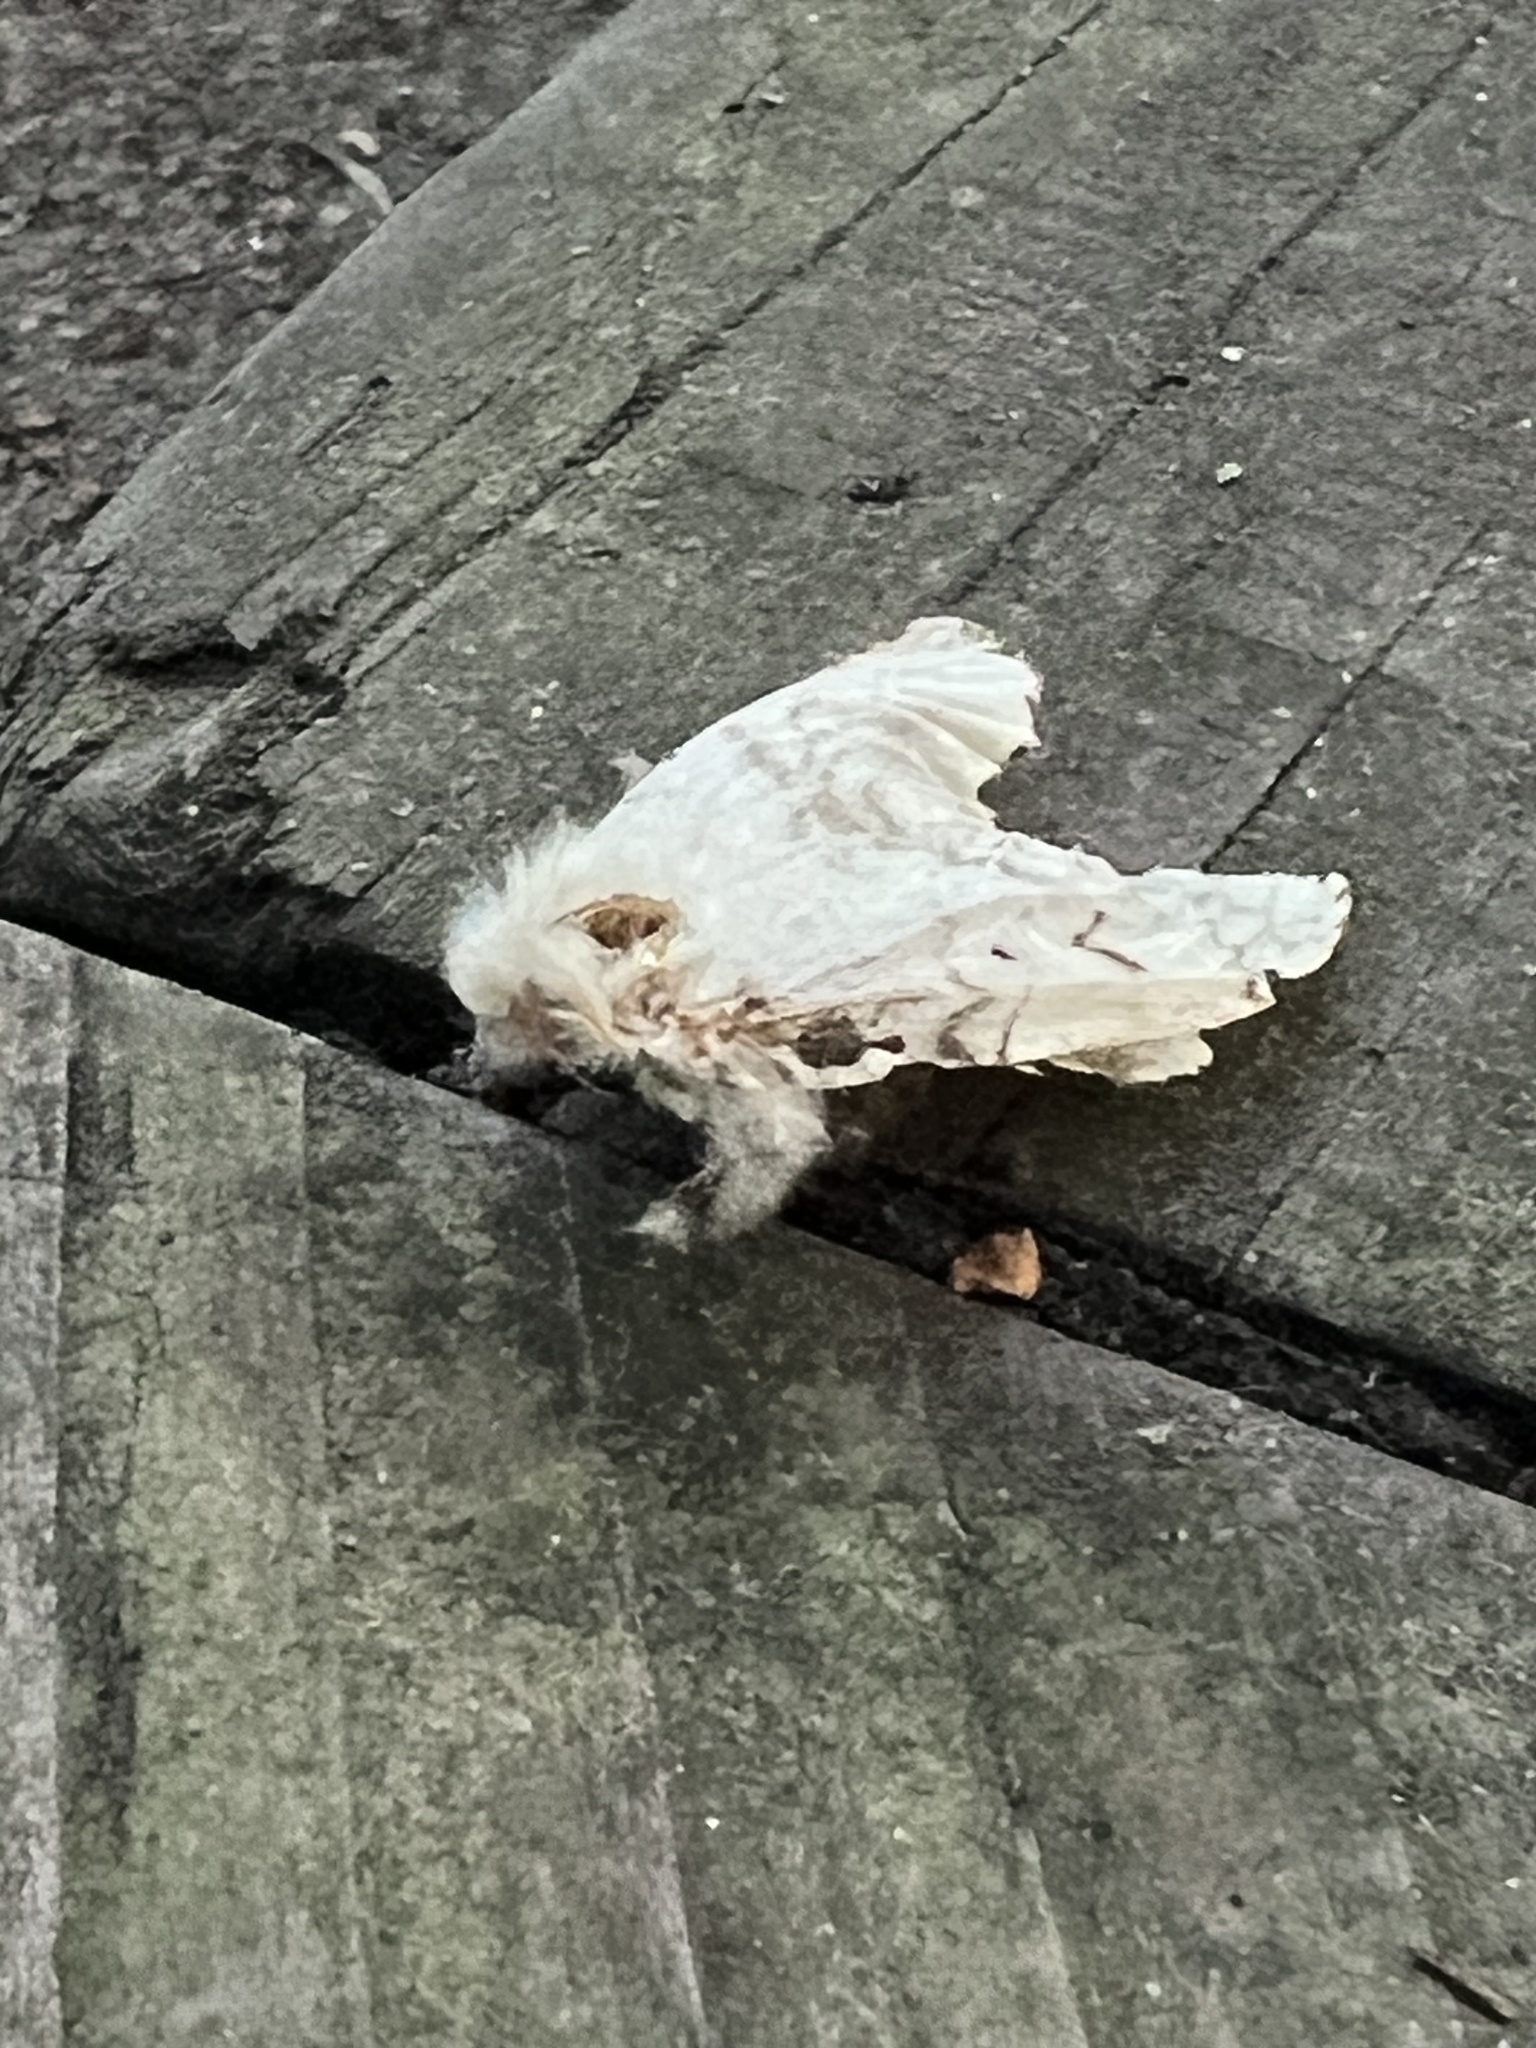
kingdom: Animalia
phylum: Arthropoda
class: Insecta
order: Lepidoptera
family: Erebidae
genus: Lymantria
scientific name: Lymantria dispar
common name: Gypsy moth
